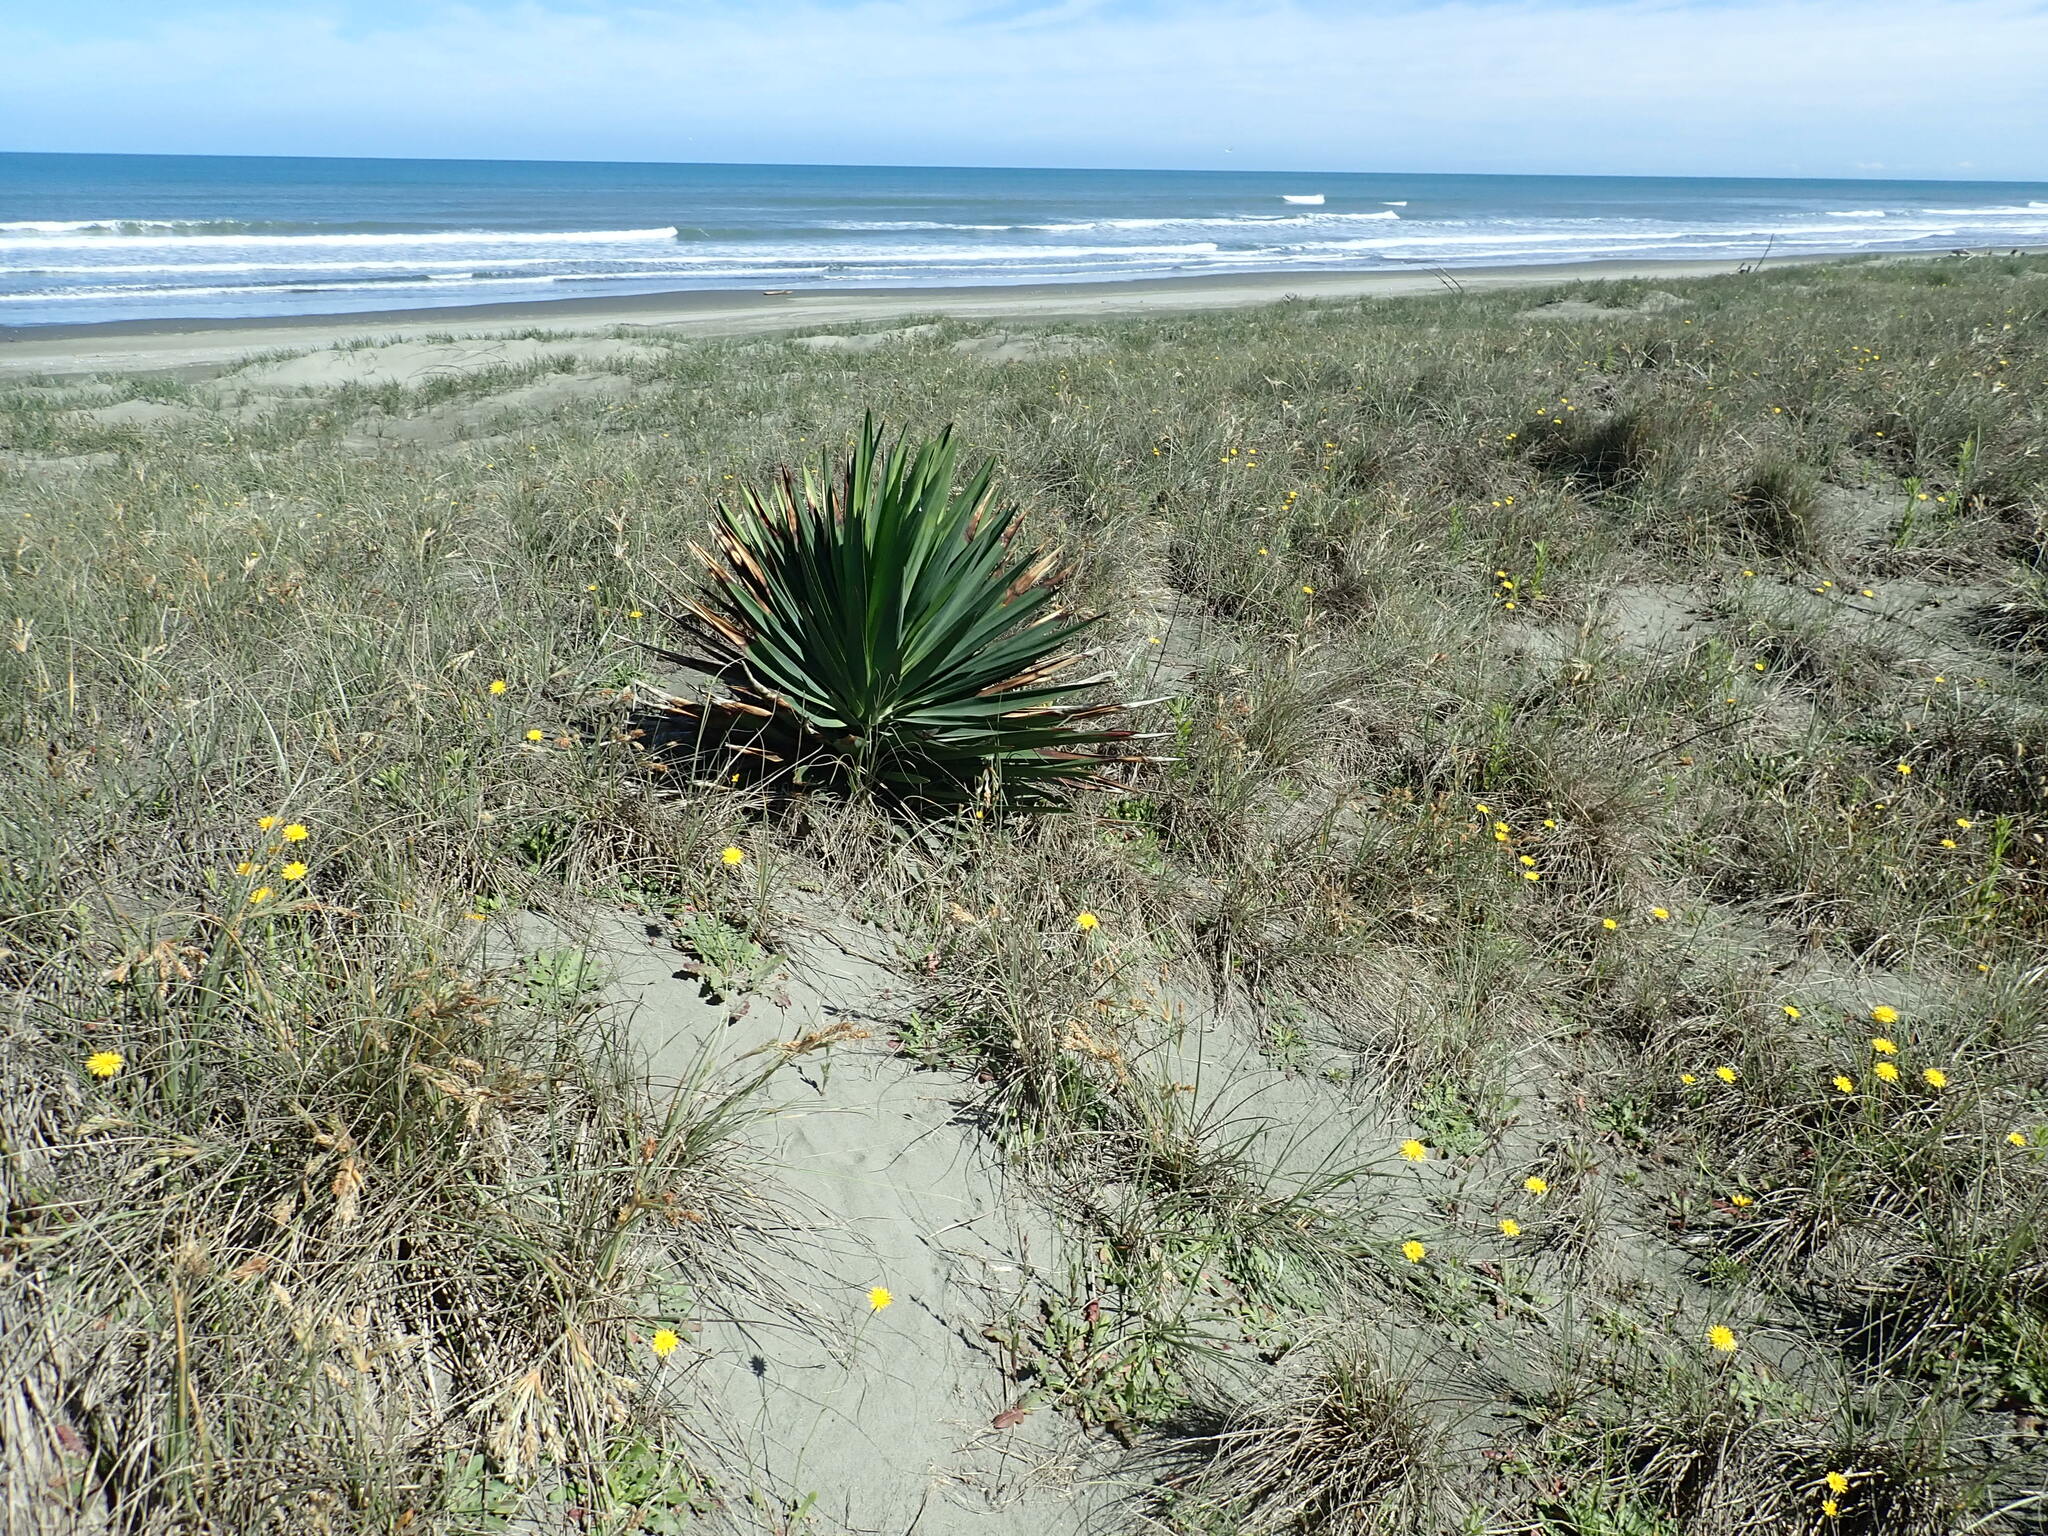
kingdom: Plantae
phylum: Tracheophyta
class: Liliopsida
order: Asparagales
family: Asparagaceae
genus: Yucca
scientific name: Yucca gloriosa
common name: Spanish-dagger
